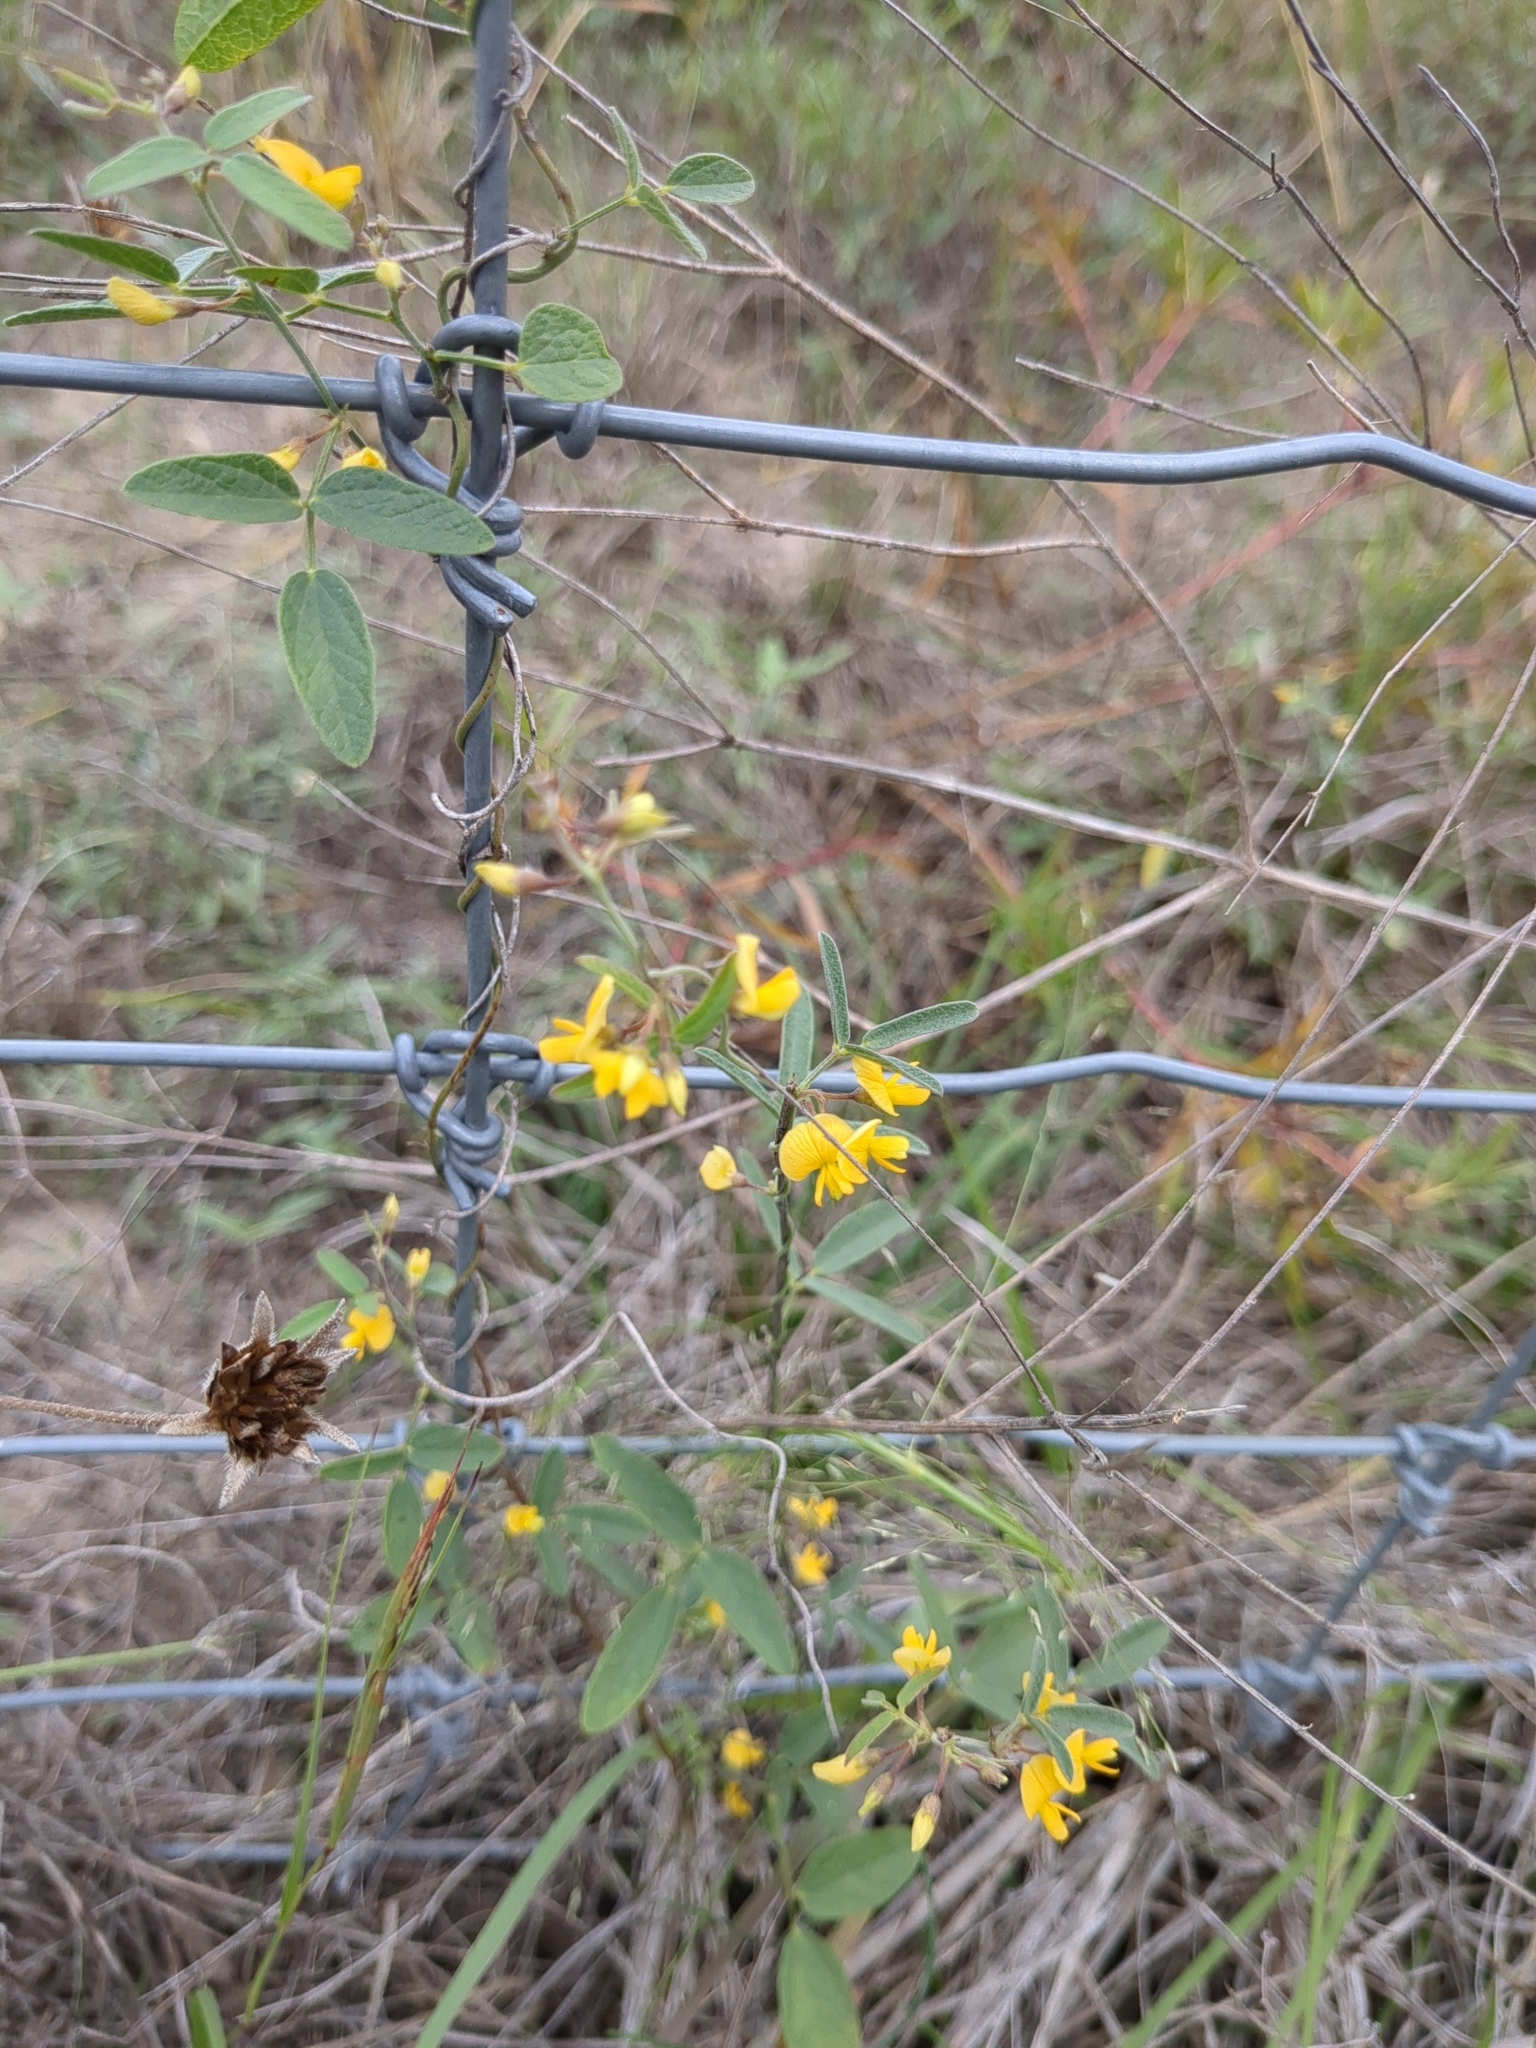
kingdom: Plantae
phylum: Tracheophyta
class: Magnoliopsida
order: Fabales
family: Fabaceae
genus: Rhynchosia
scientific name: Rhynchosia senna
